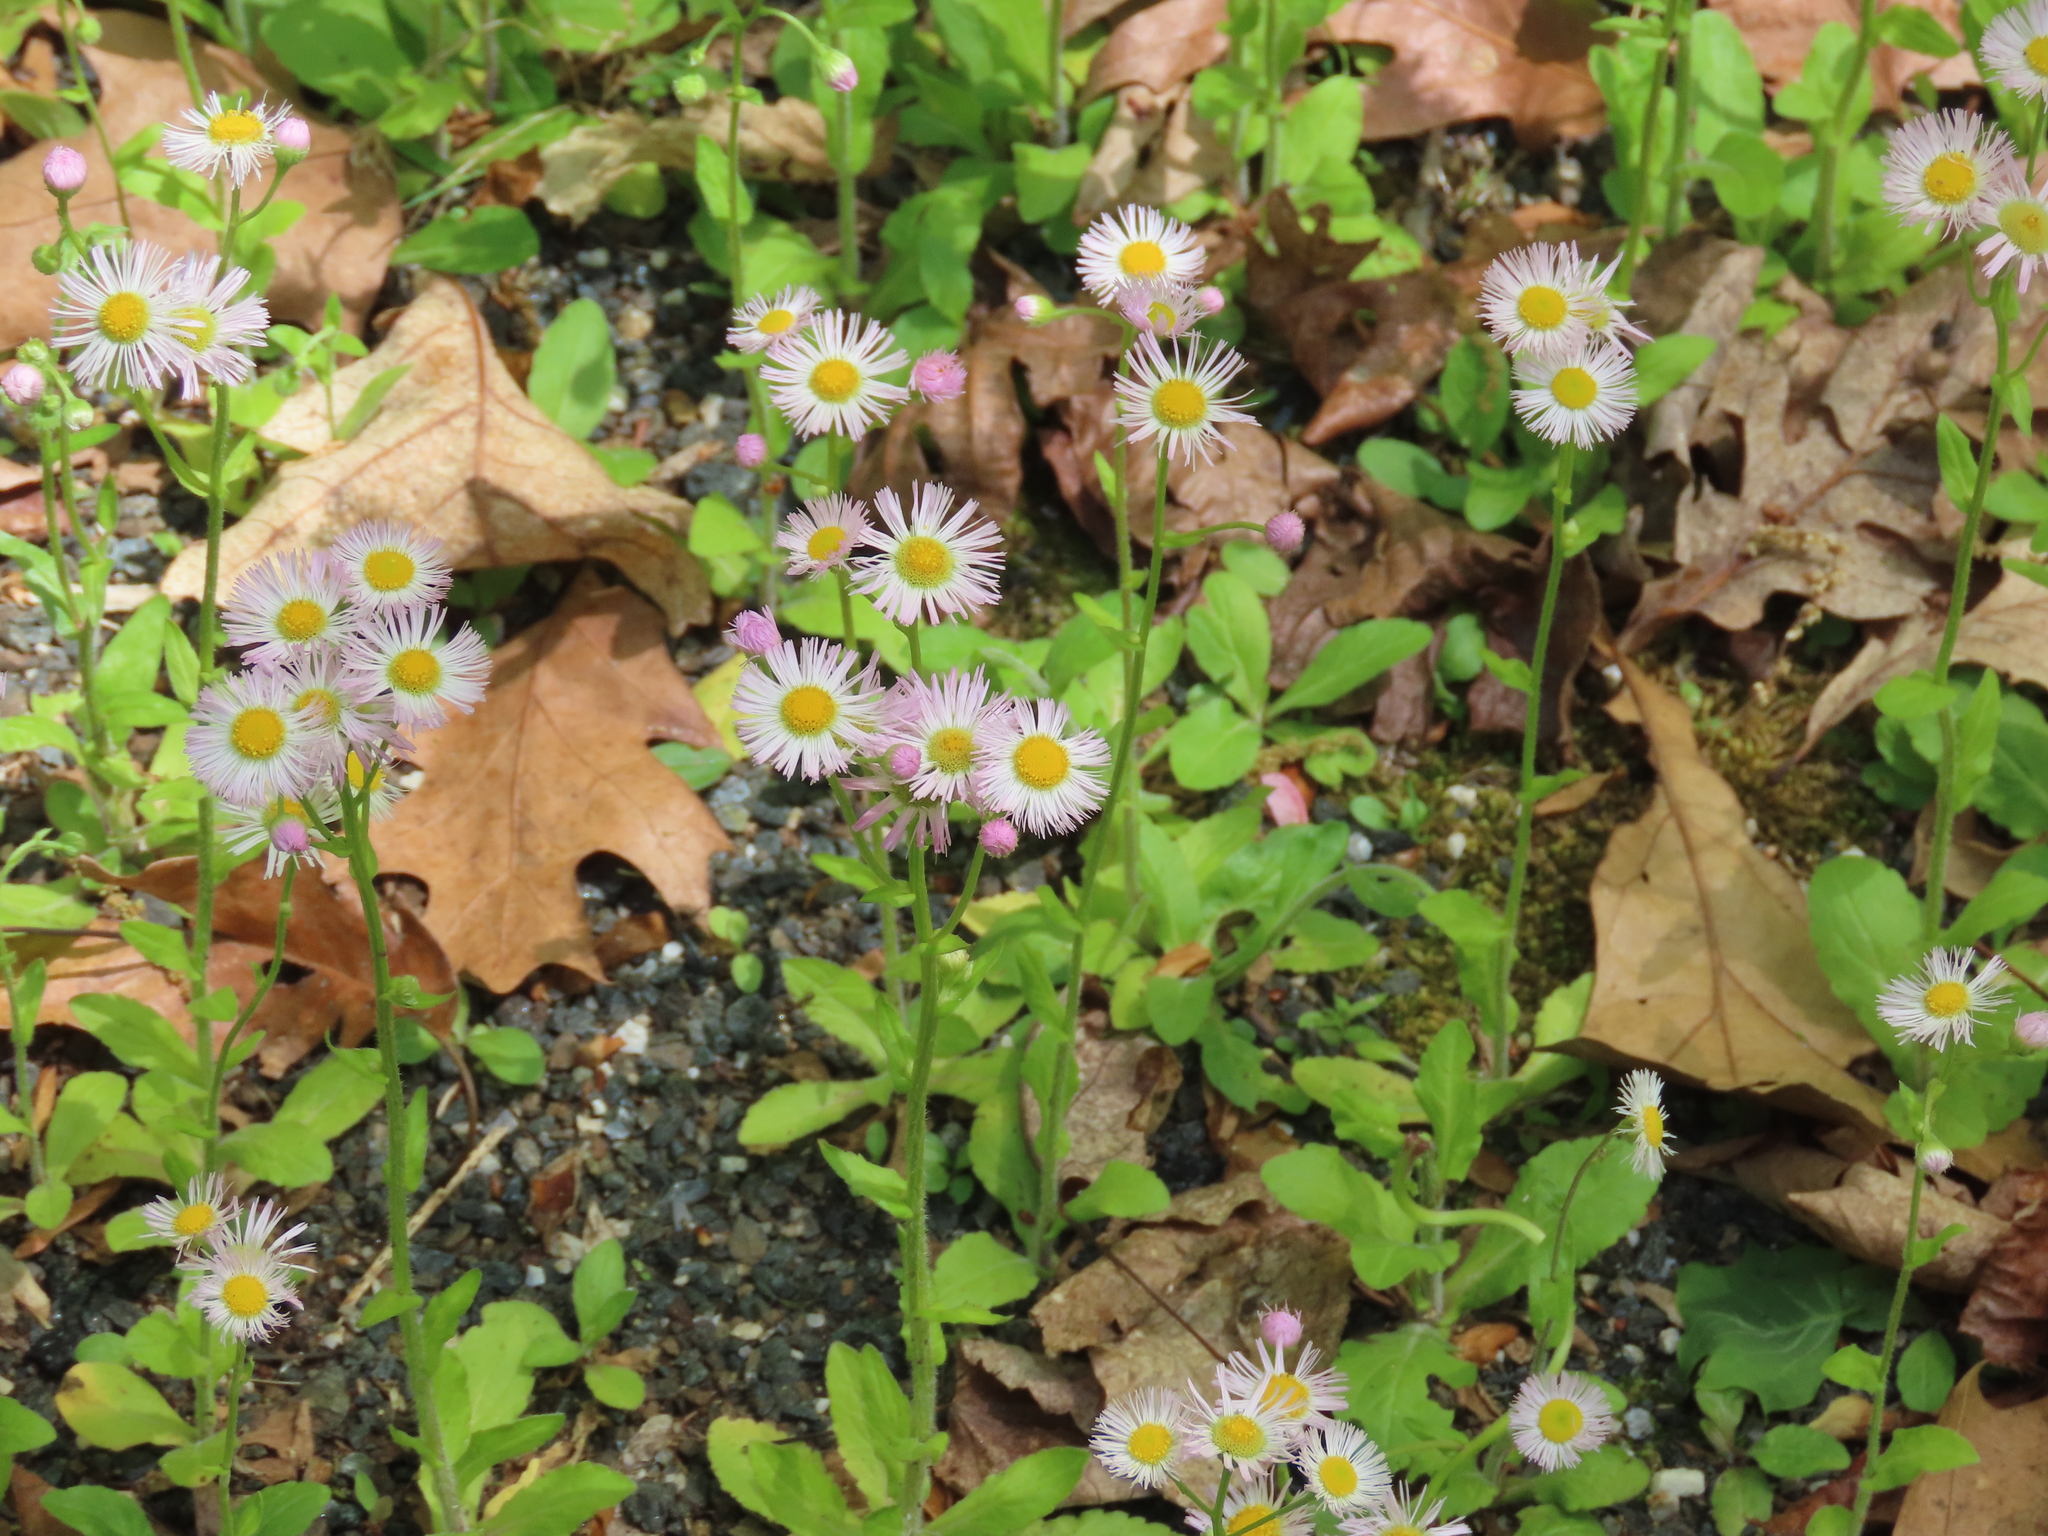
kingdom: Plantae
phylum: Tracheophyta
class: Magnoliopsida
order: Asterales
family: Asteraceae
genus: Erigeron
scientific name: Erigeron philadelphicus
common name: Robin's-plantain
